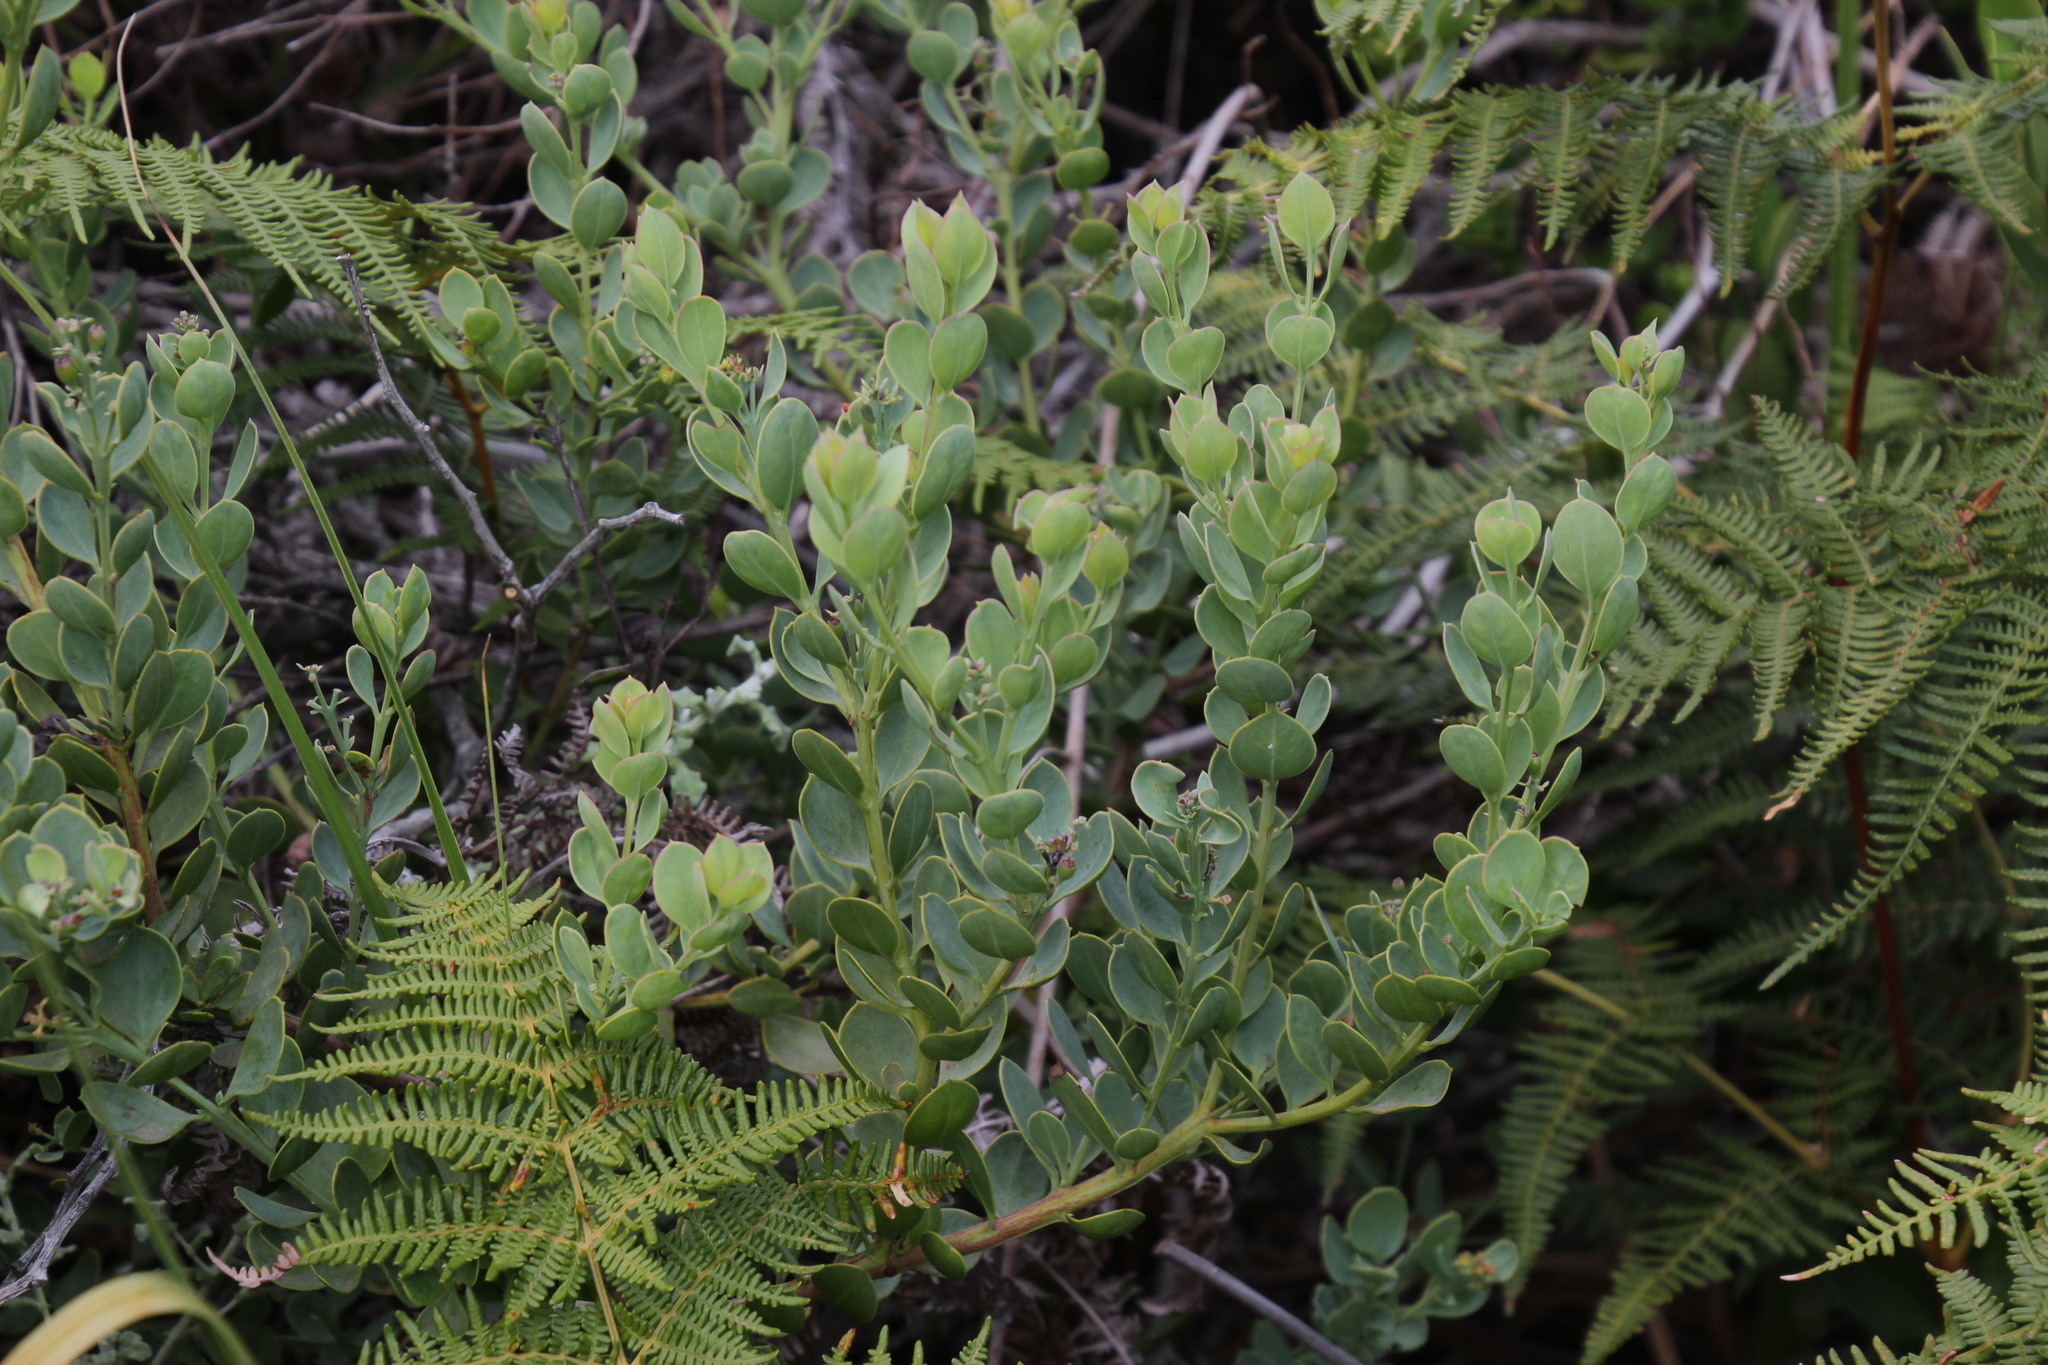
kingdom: Plantae
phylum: Tracheophyta
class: Magnoliopsida
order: Santalales
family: Santalaceae
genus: Osyris
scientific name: Osyris compressa
